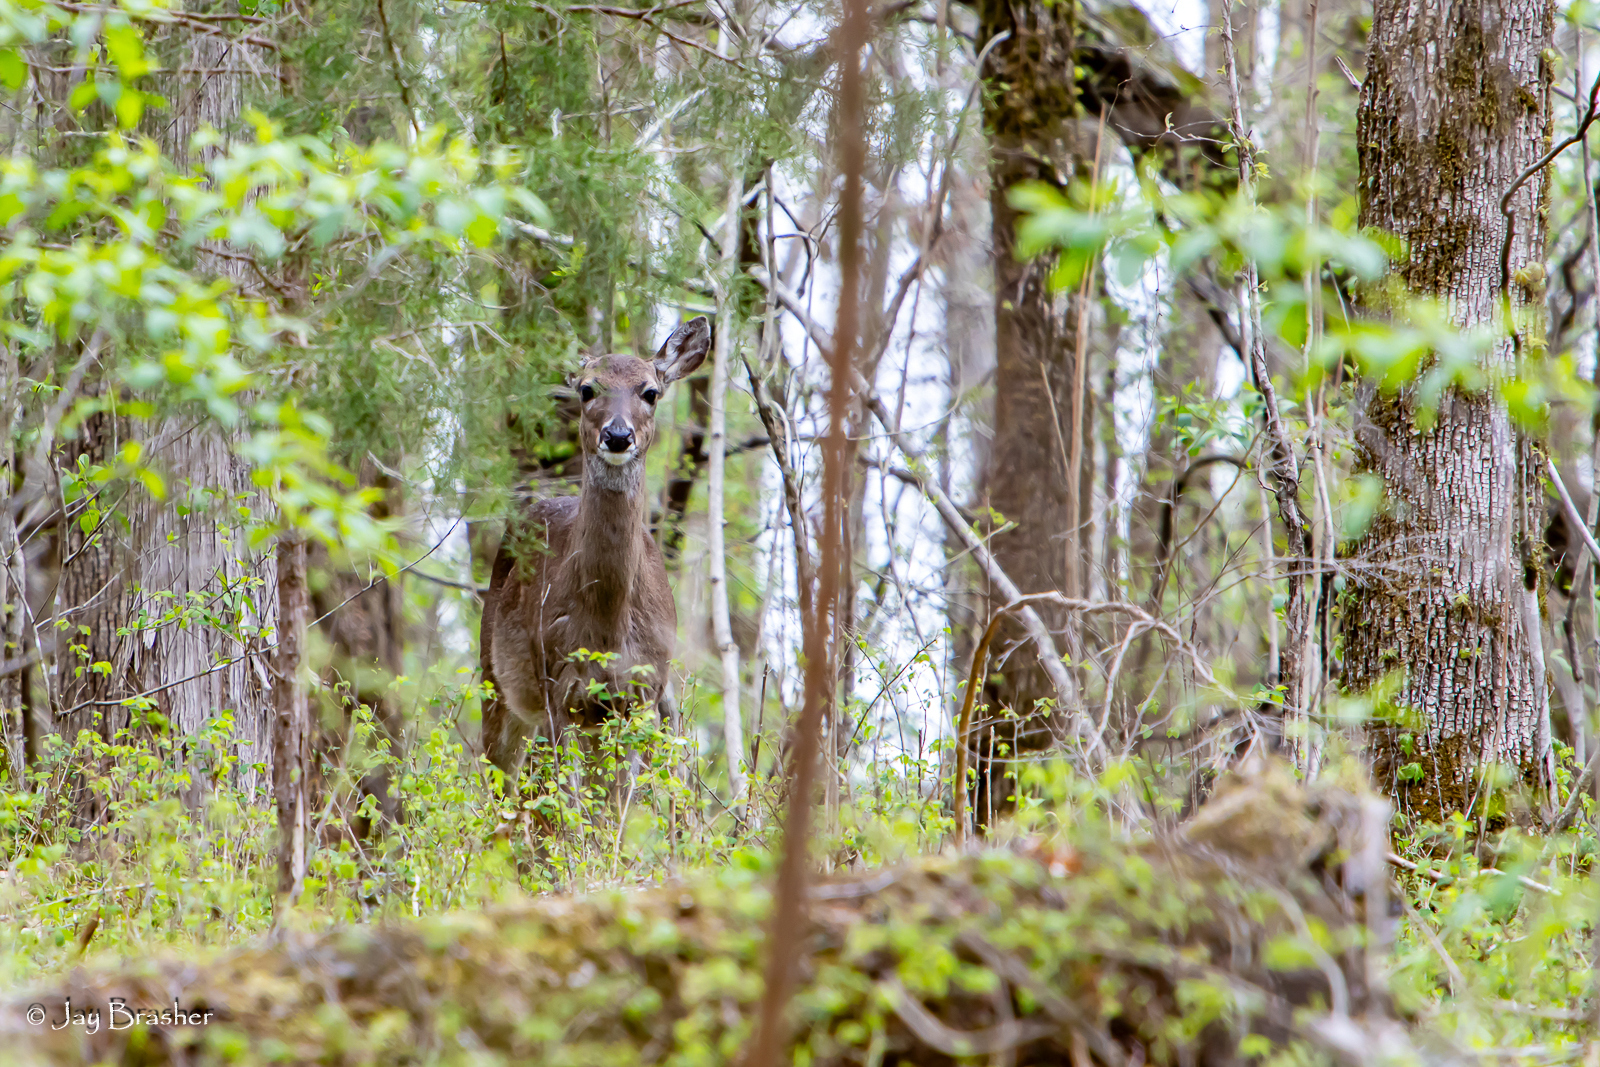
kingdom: Animalia
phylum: Chordata
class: Mammalia
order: Artiodactyla
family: Cervidae
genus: Odocoileus
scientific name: Odocoileus virginianus
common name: White-tailed deer
